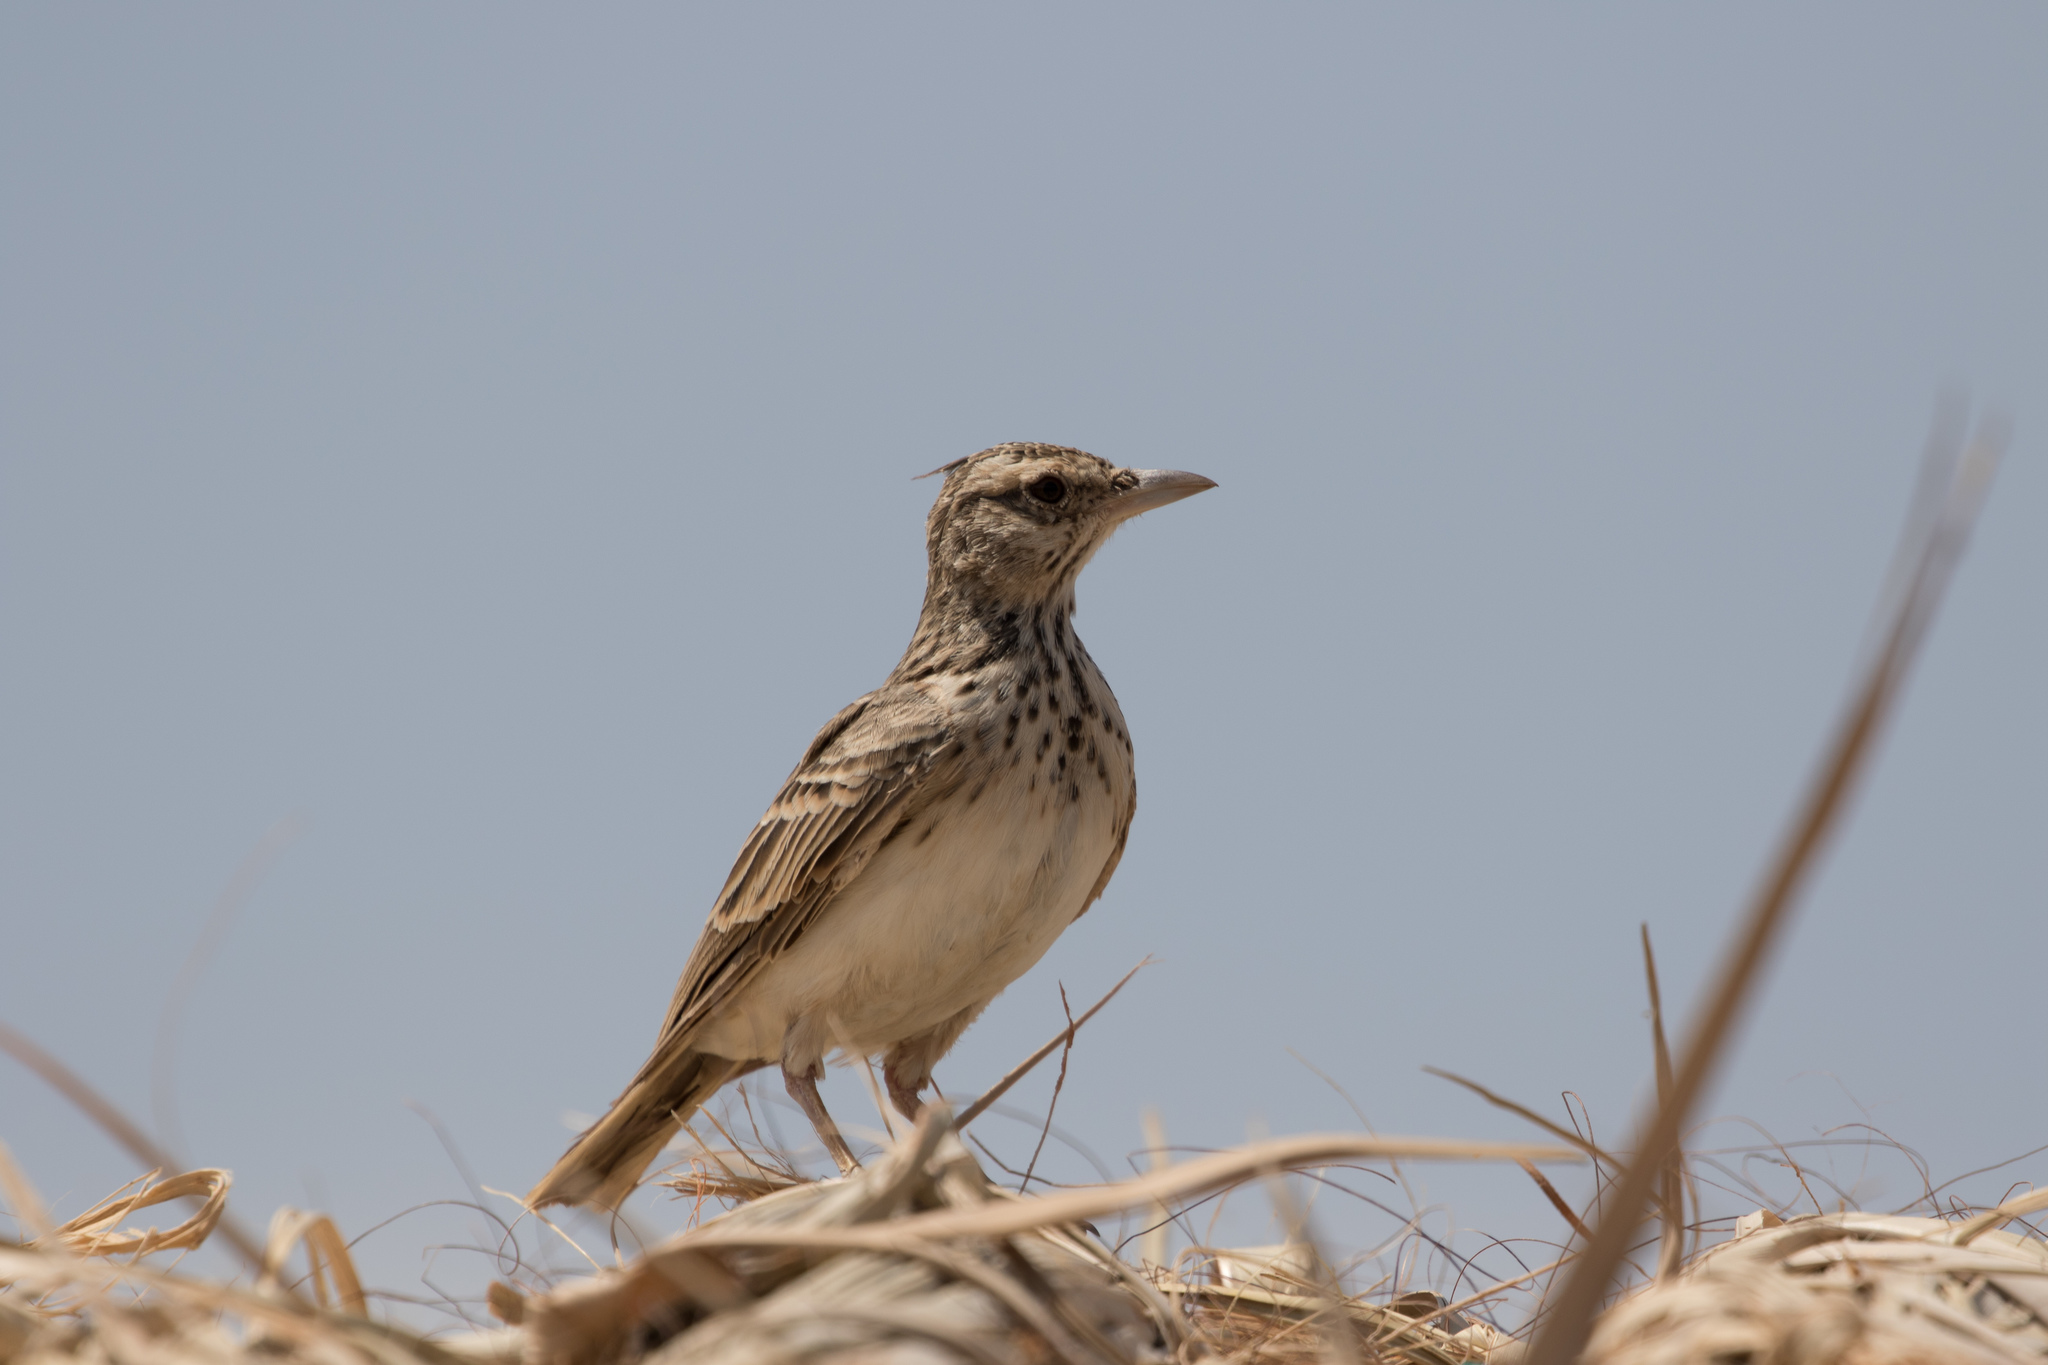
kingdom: Animalia
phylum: Chordata
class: Aves
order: Passeriformes
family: Alaudidae
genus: Galerida
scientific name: Galerida cristata
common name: Crested lark
